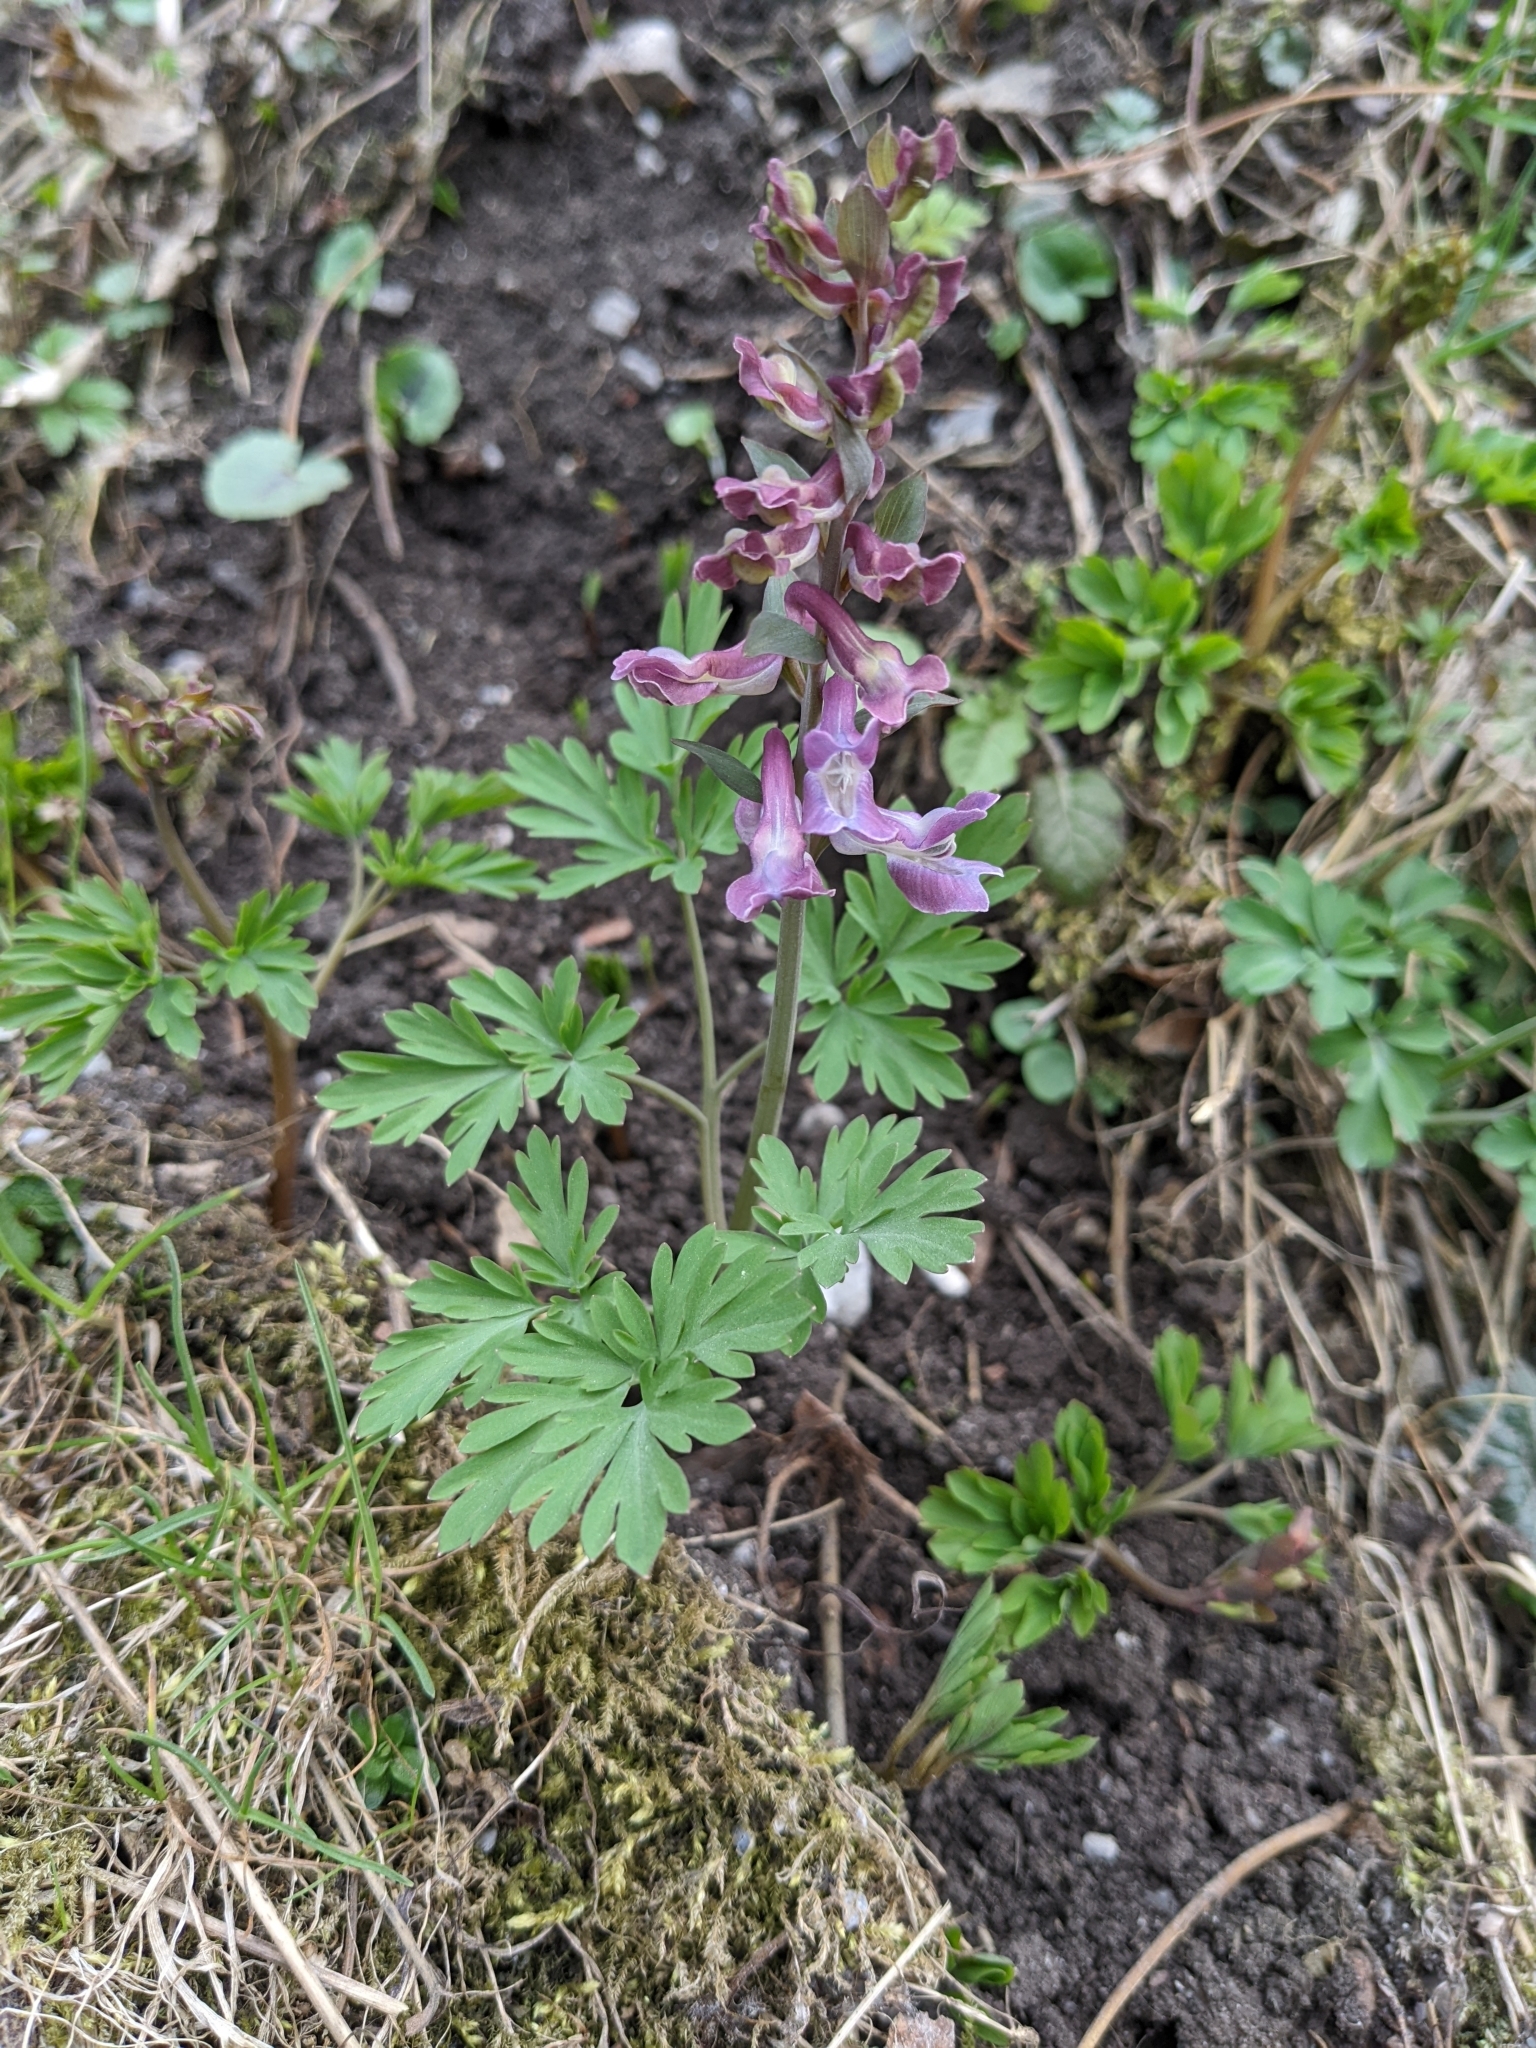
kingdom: Plantae
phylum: Tracheophyta
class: Magnoliopsida
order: Ranunculales
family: Papaveraceae
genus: Corydalis
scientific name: Corydalis cava
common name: Hollowroot
